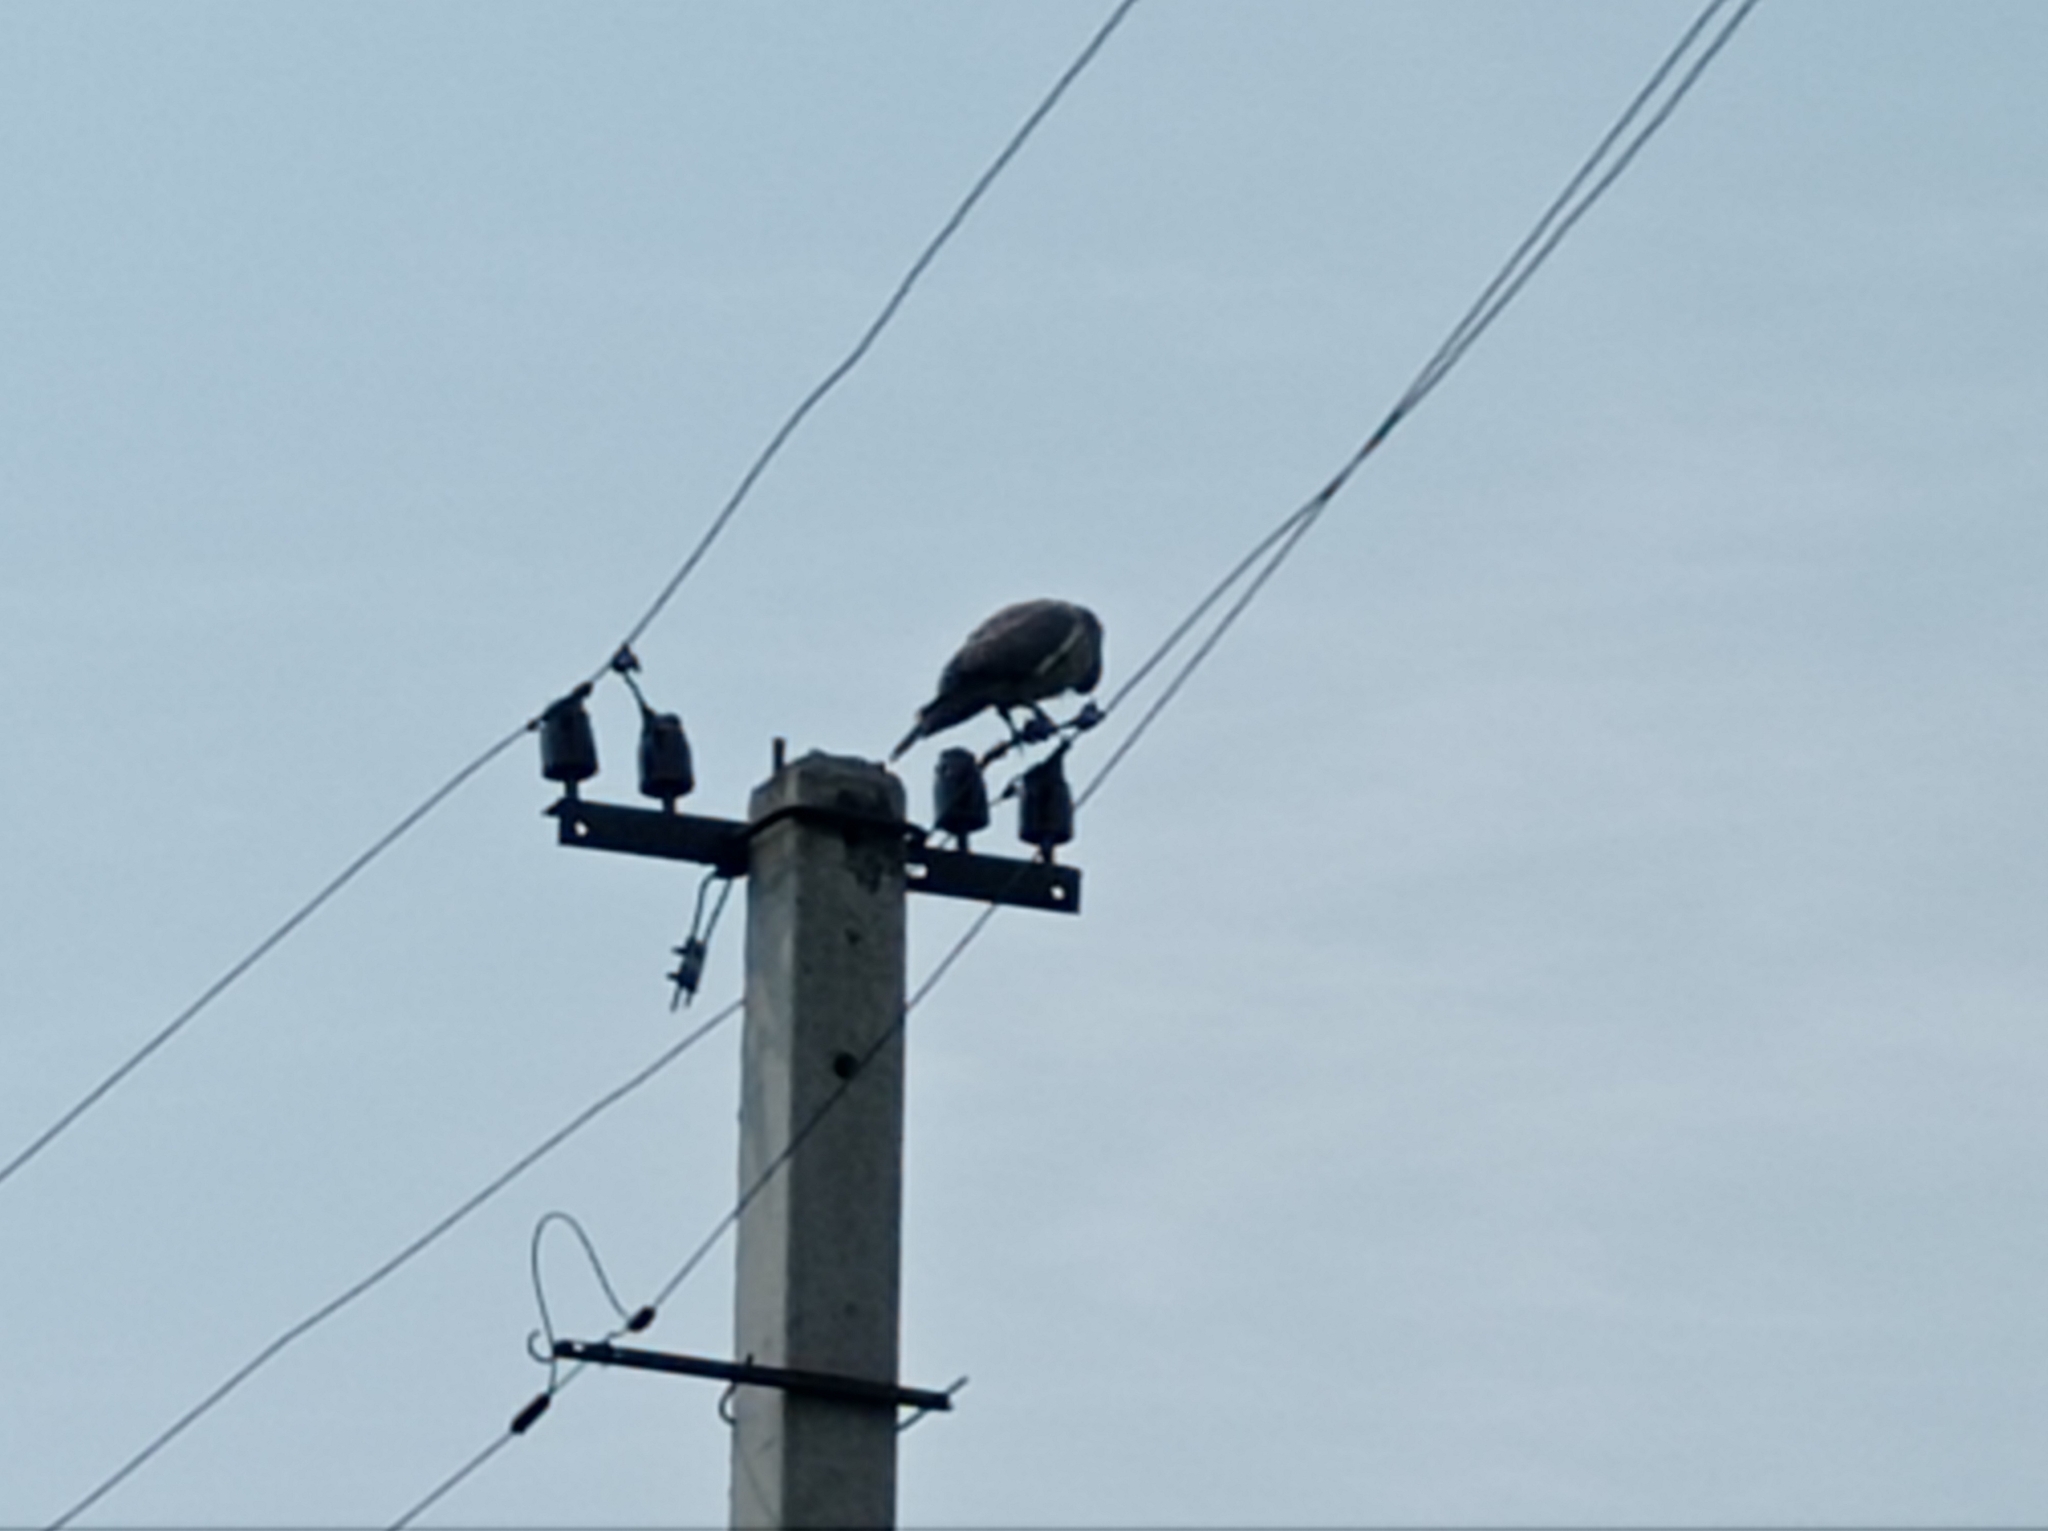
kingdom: Animalia
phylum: Chordata
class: Aves
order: Columbiformes
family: Columbidae
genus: Columba
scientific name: Columba palumbus
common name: Common wood pigeon
